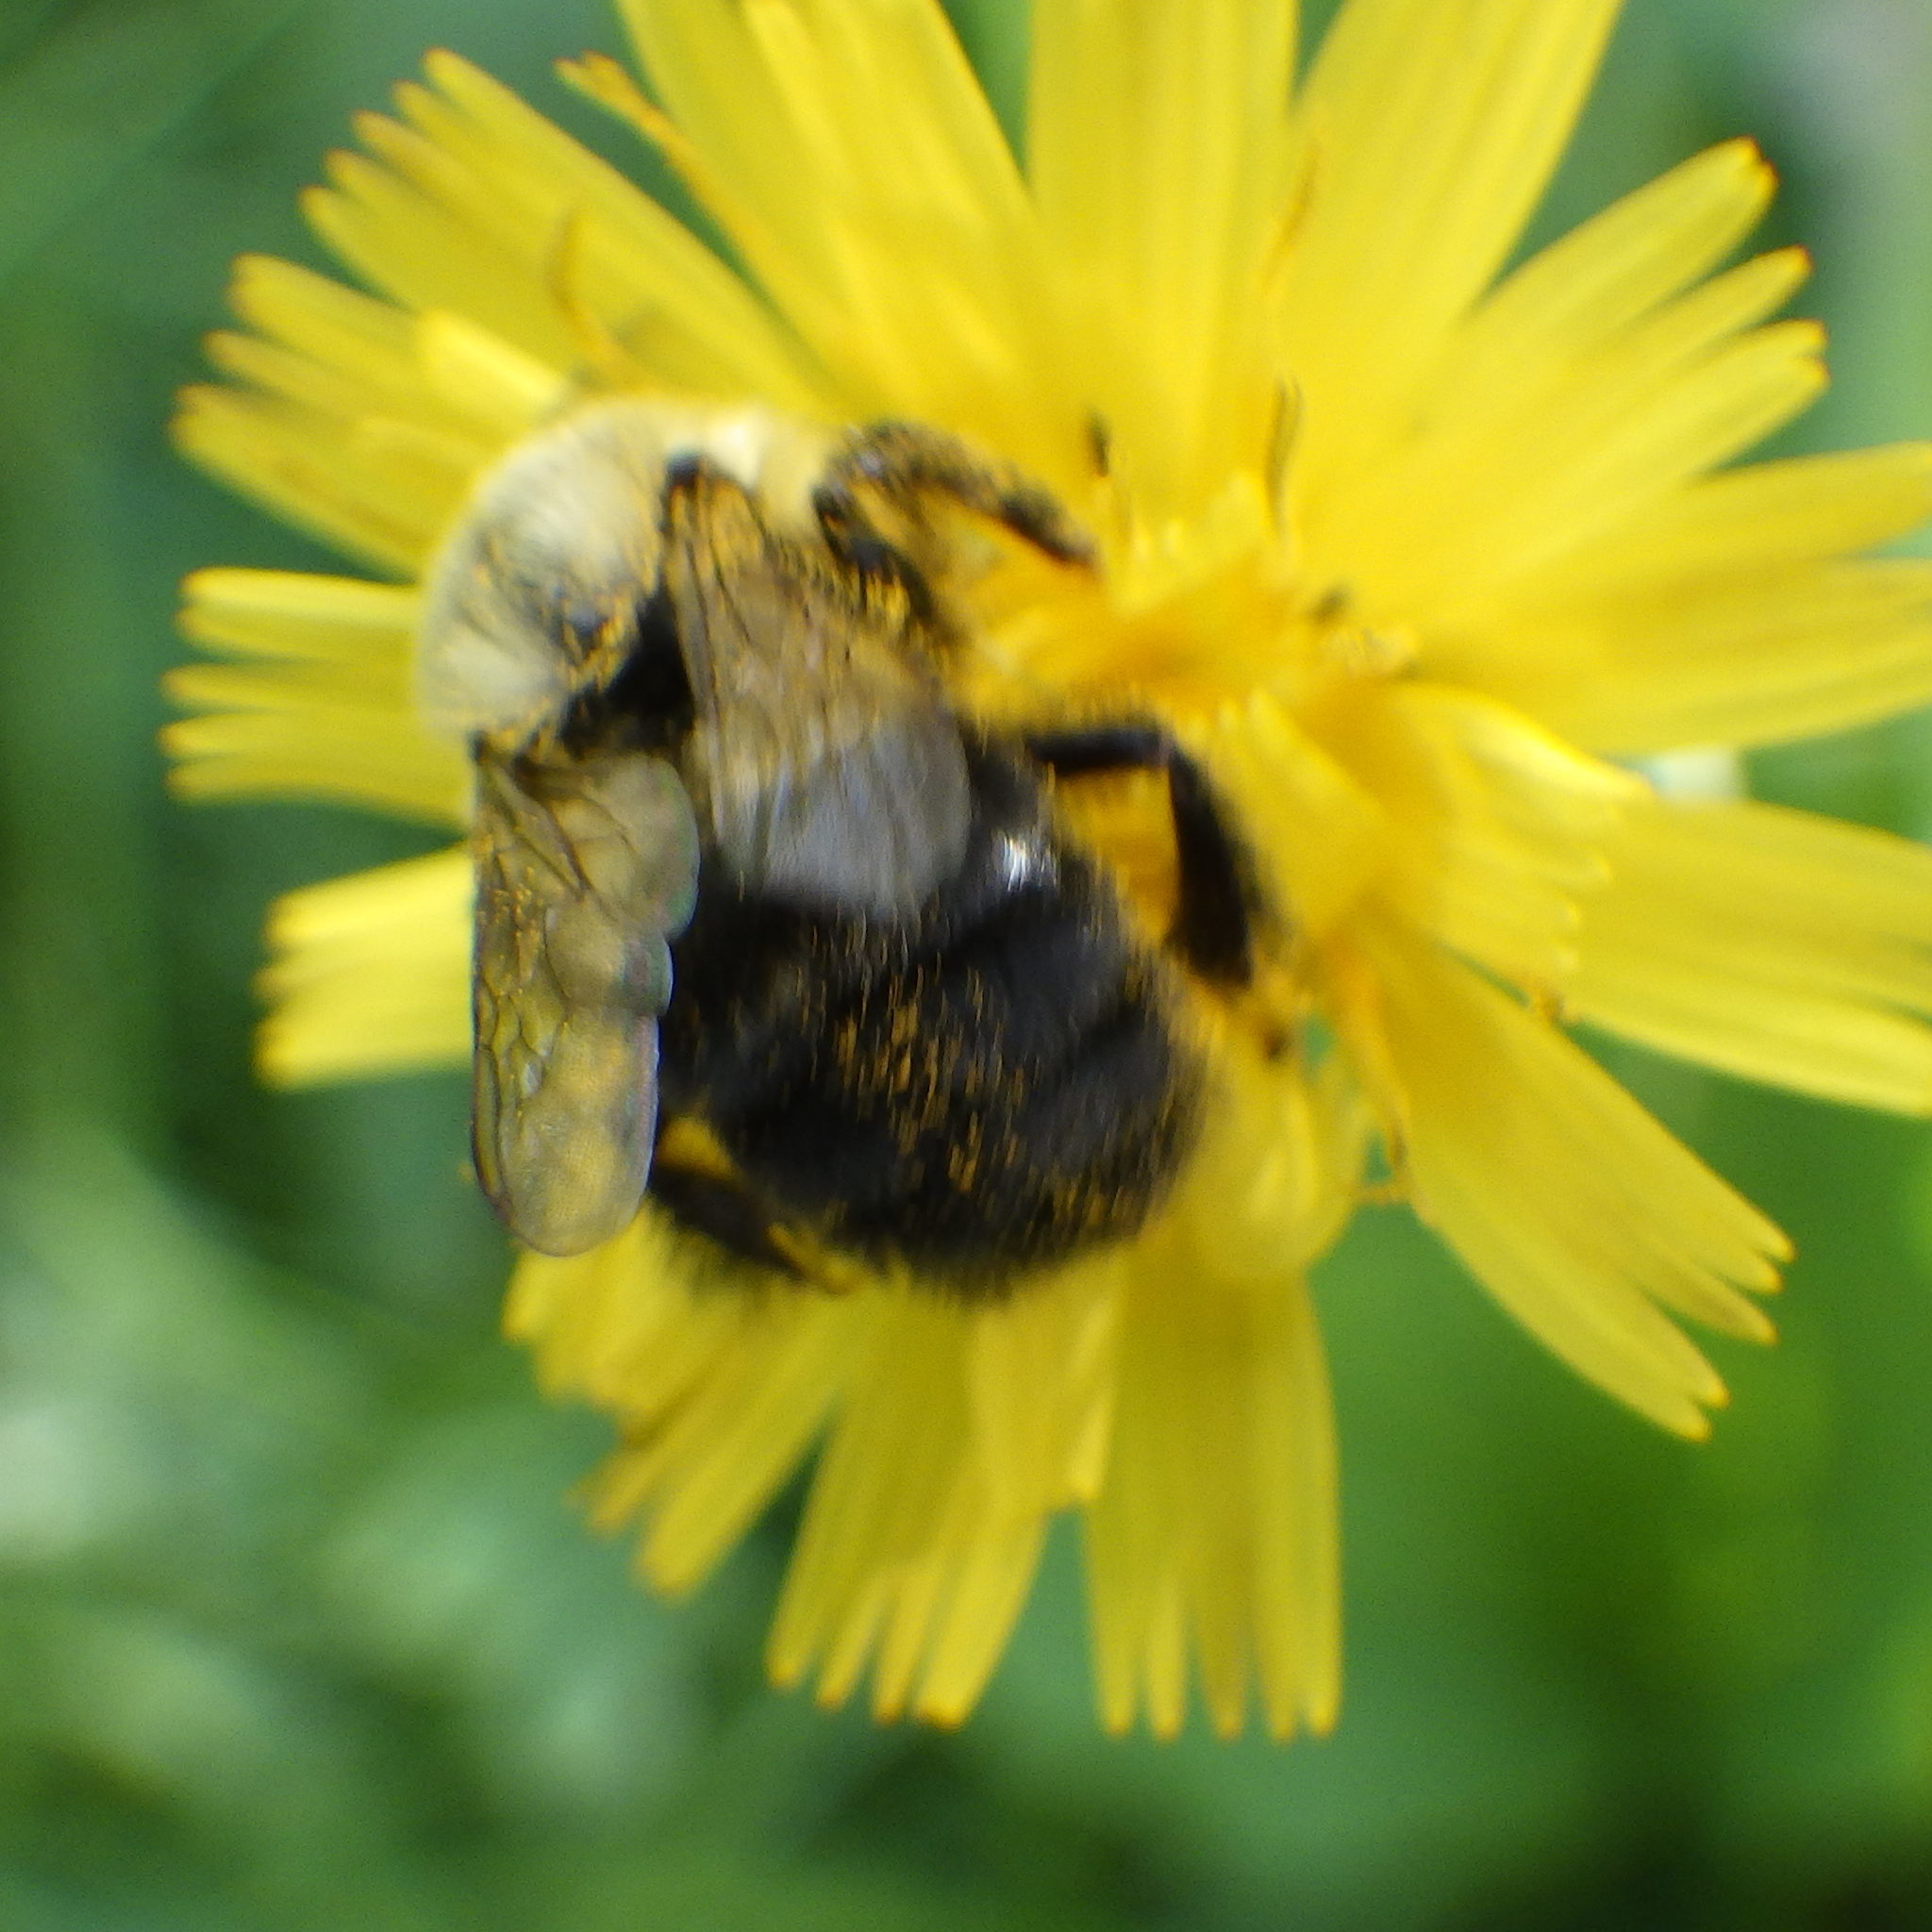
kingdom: Animalia
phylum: Arthropoda
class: Insecta
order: Hymenoptera
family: Apidae
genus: Bombus
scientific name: Bombus impatiens
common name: Common eastern bumble bee
